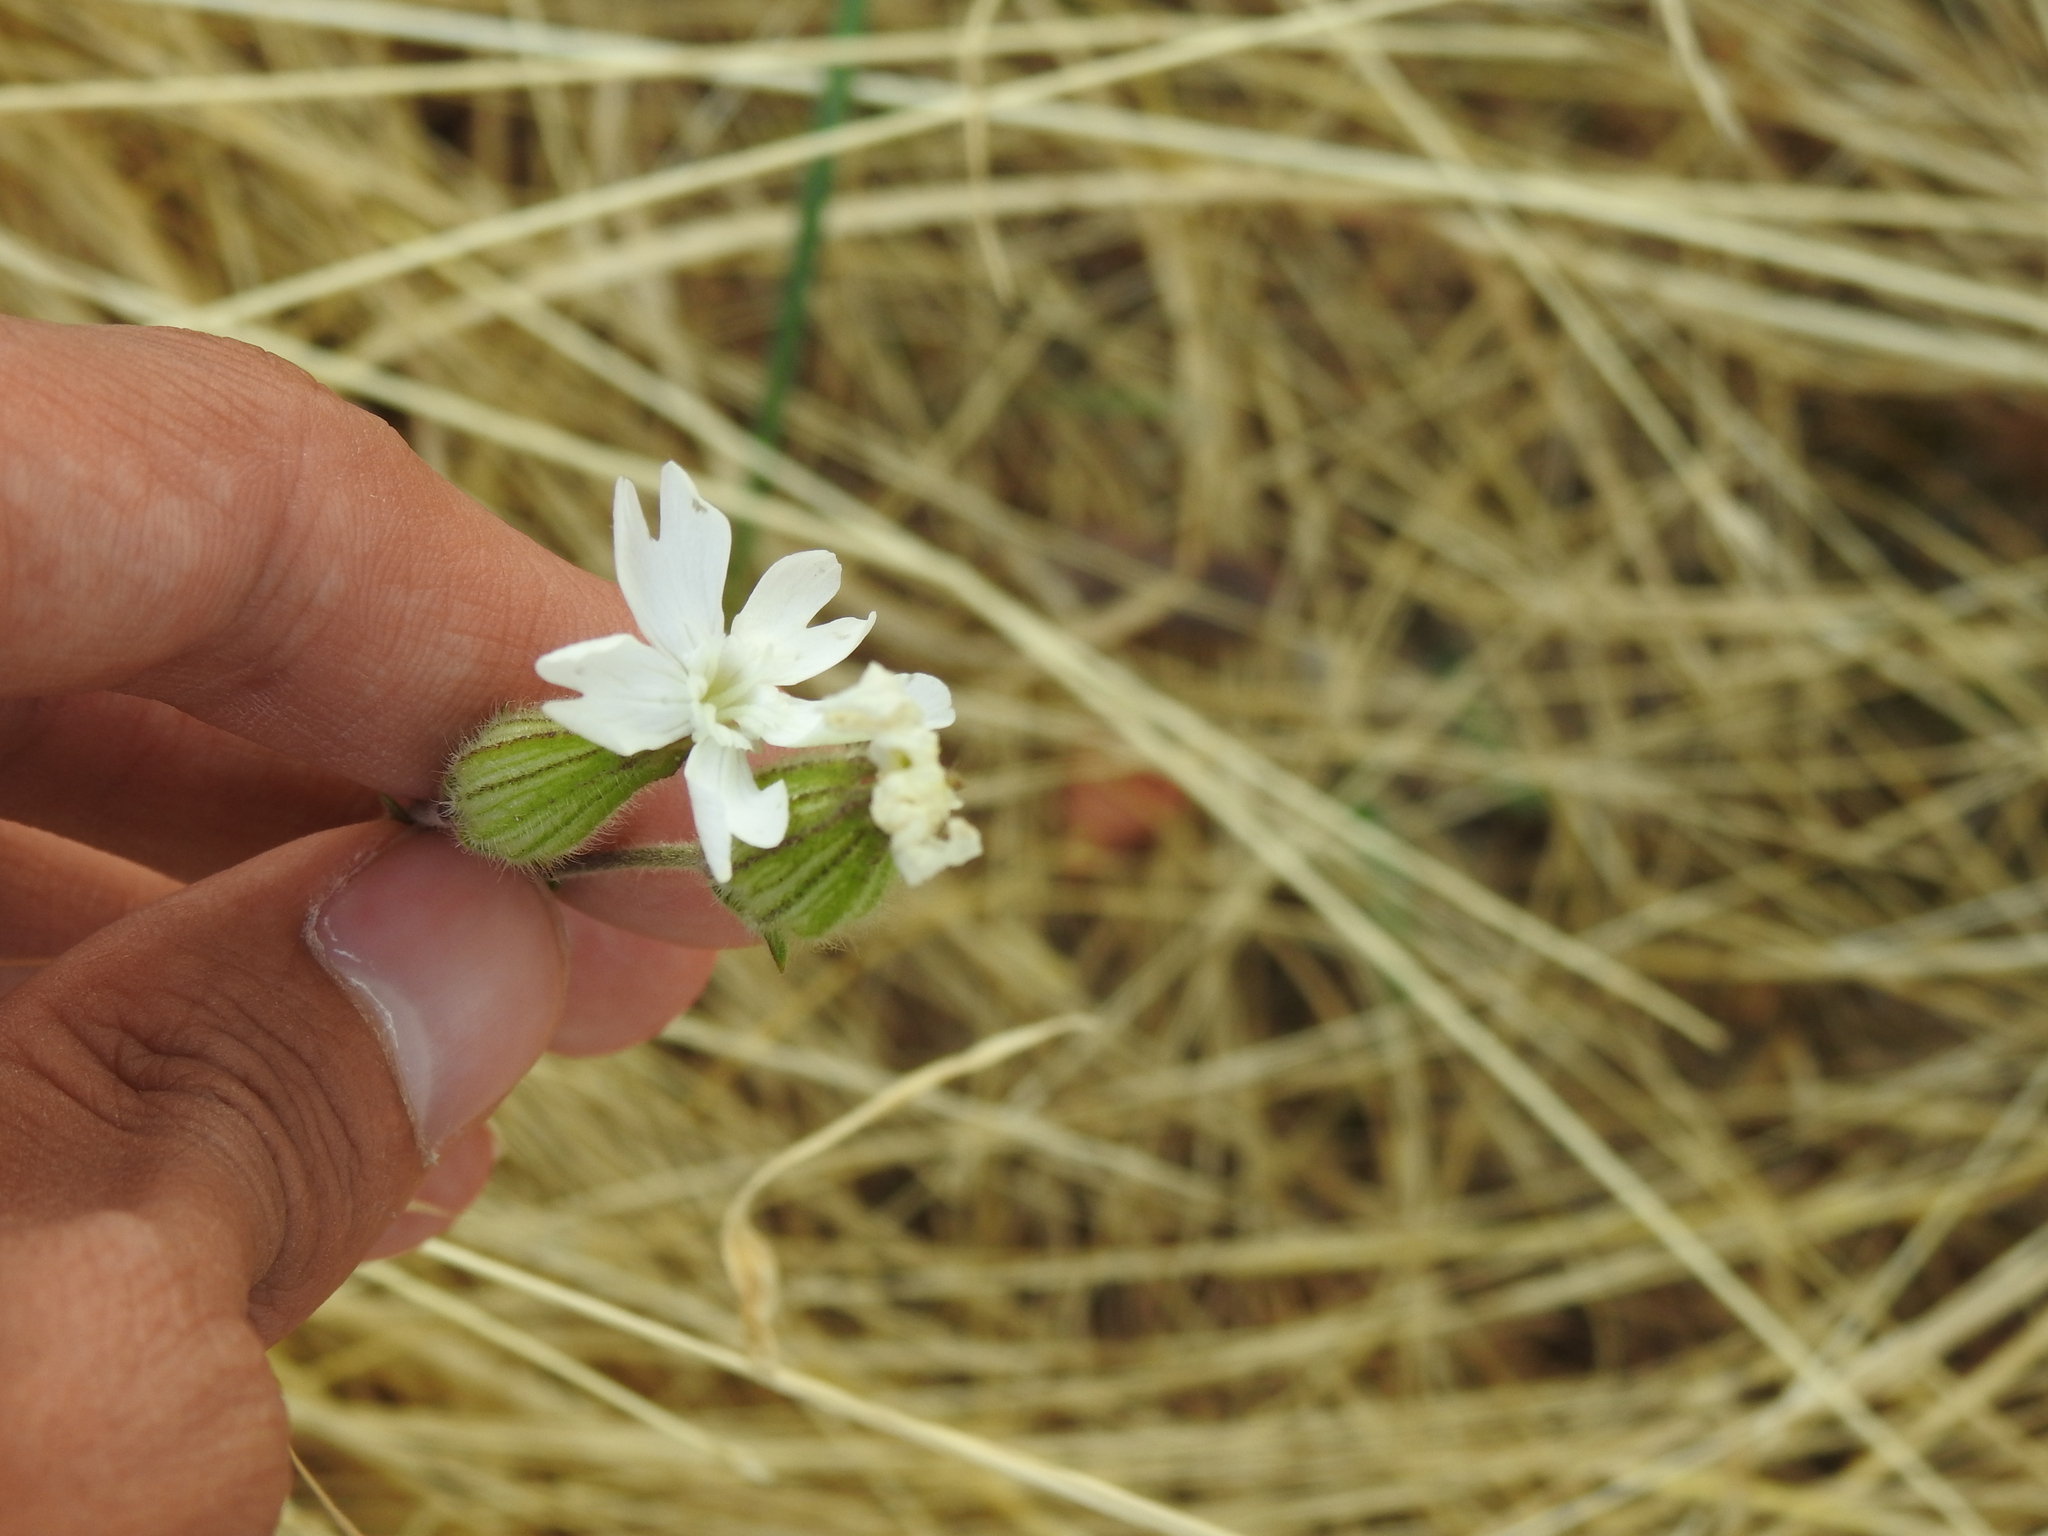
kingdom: Plantae
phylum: Tracheophyta
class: Magnoliopsida
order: Caryophyllales
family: Caryophyllaceae
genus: Silene
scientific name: Silene latifolia
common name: White campion
